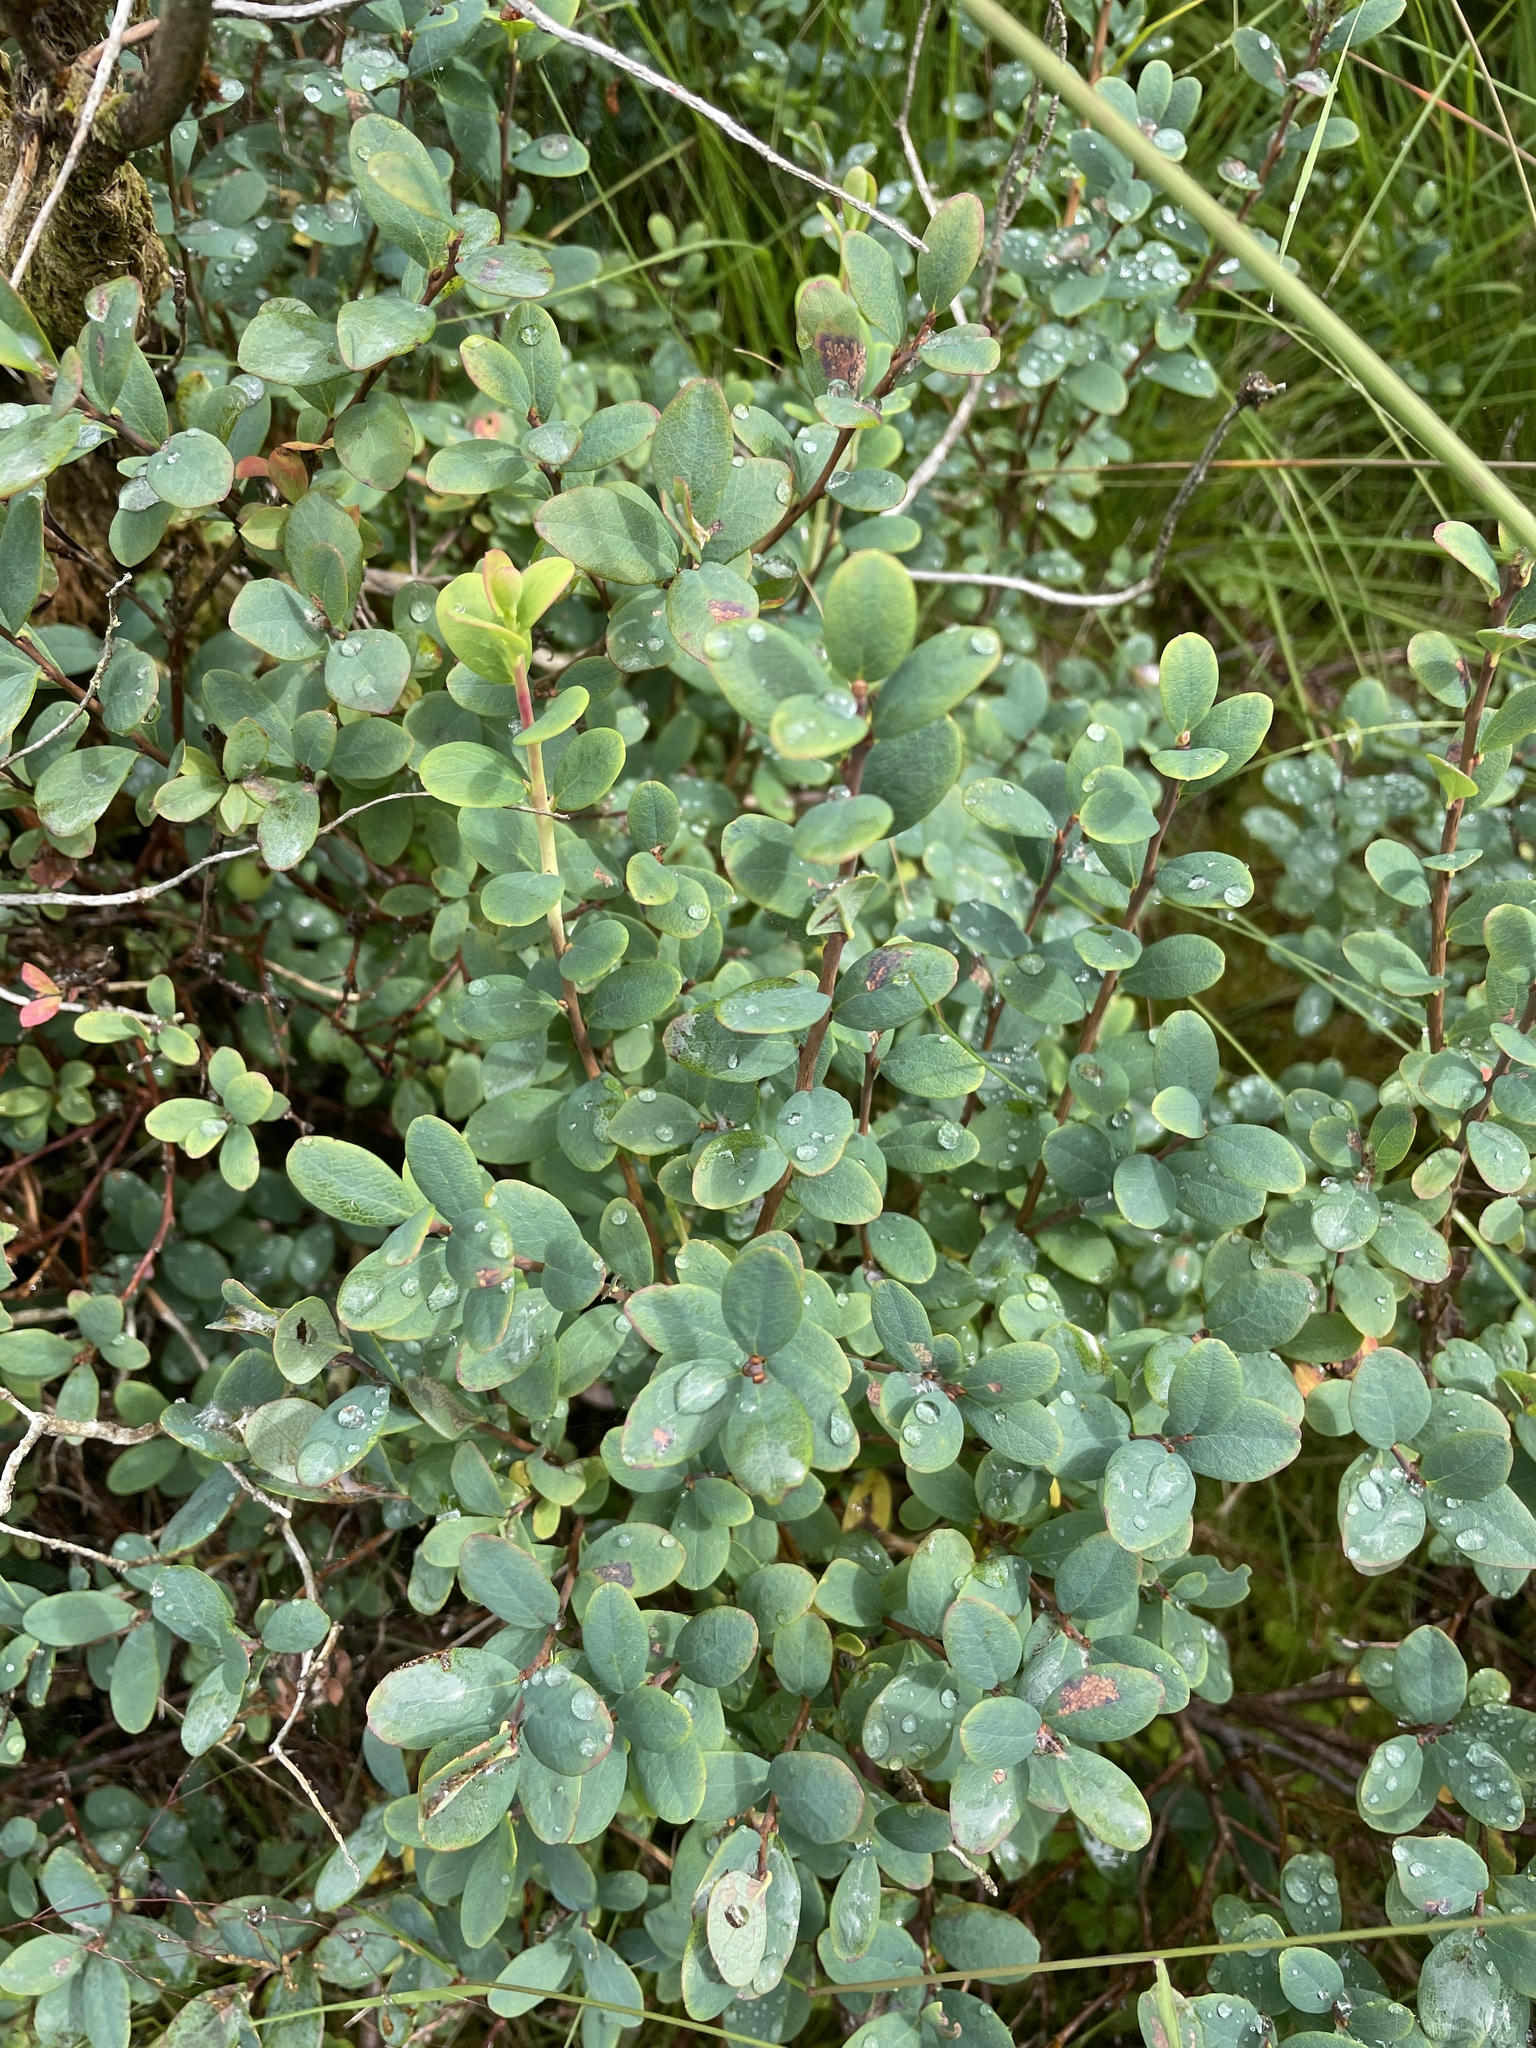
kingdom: Plantae
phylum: Tracheophyta
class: Magnoliopsida
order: Ericales
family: Ericaceae
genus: Vaccinium
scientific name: Vaccinium uliginosum
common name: Bog bilberry
